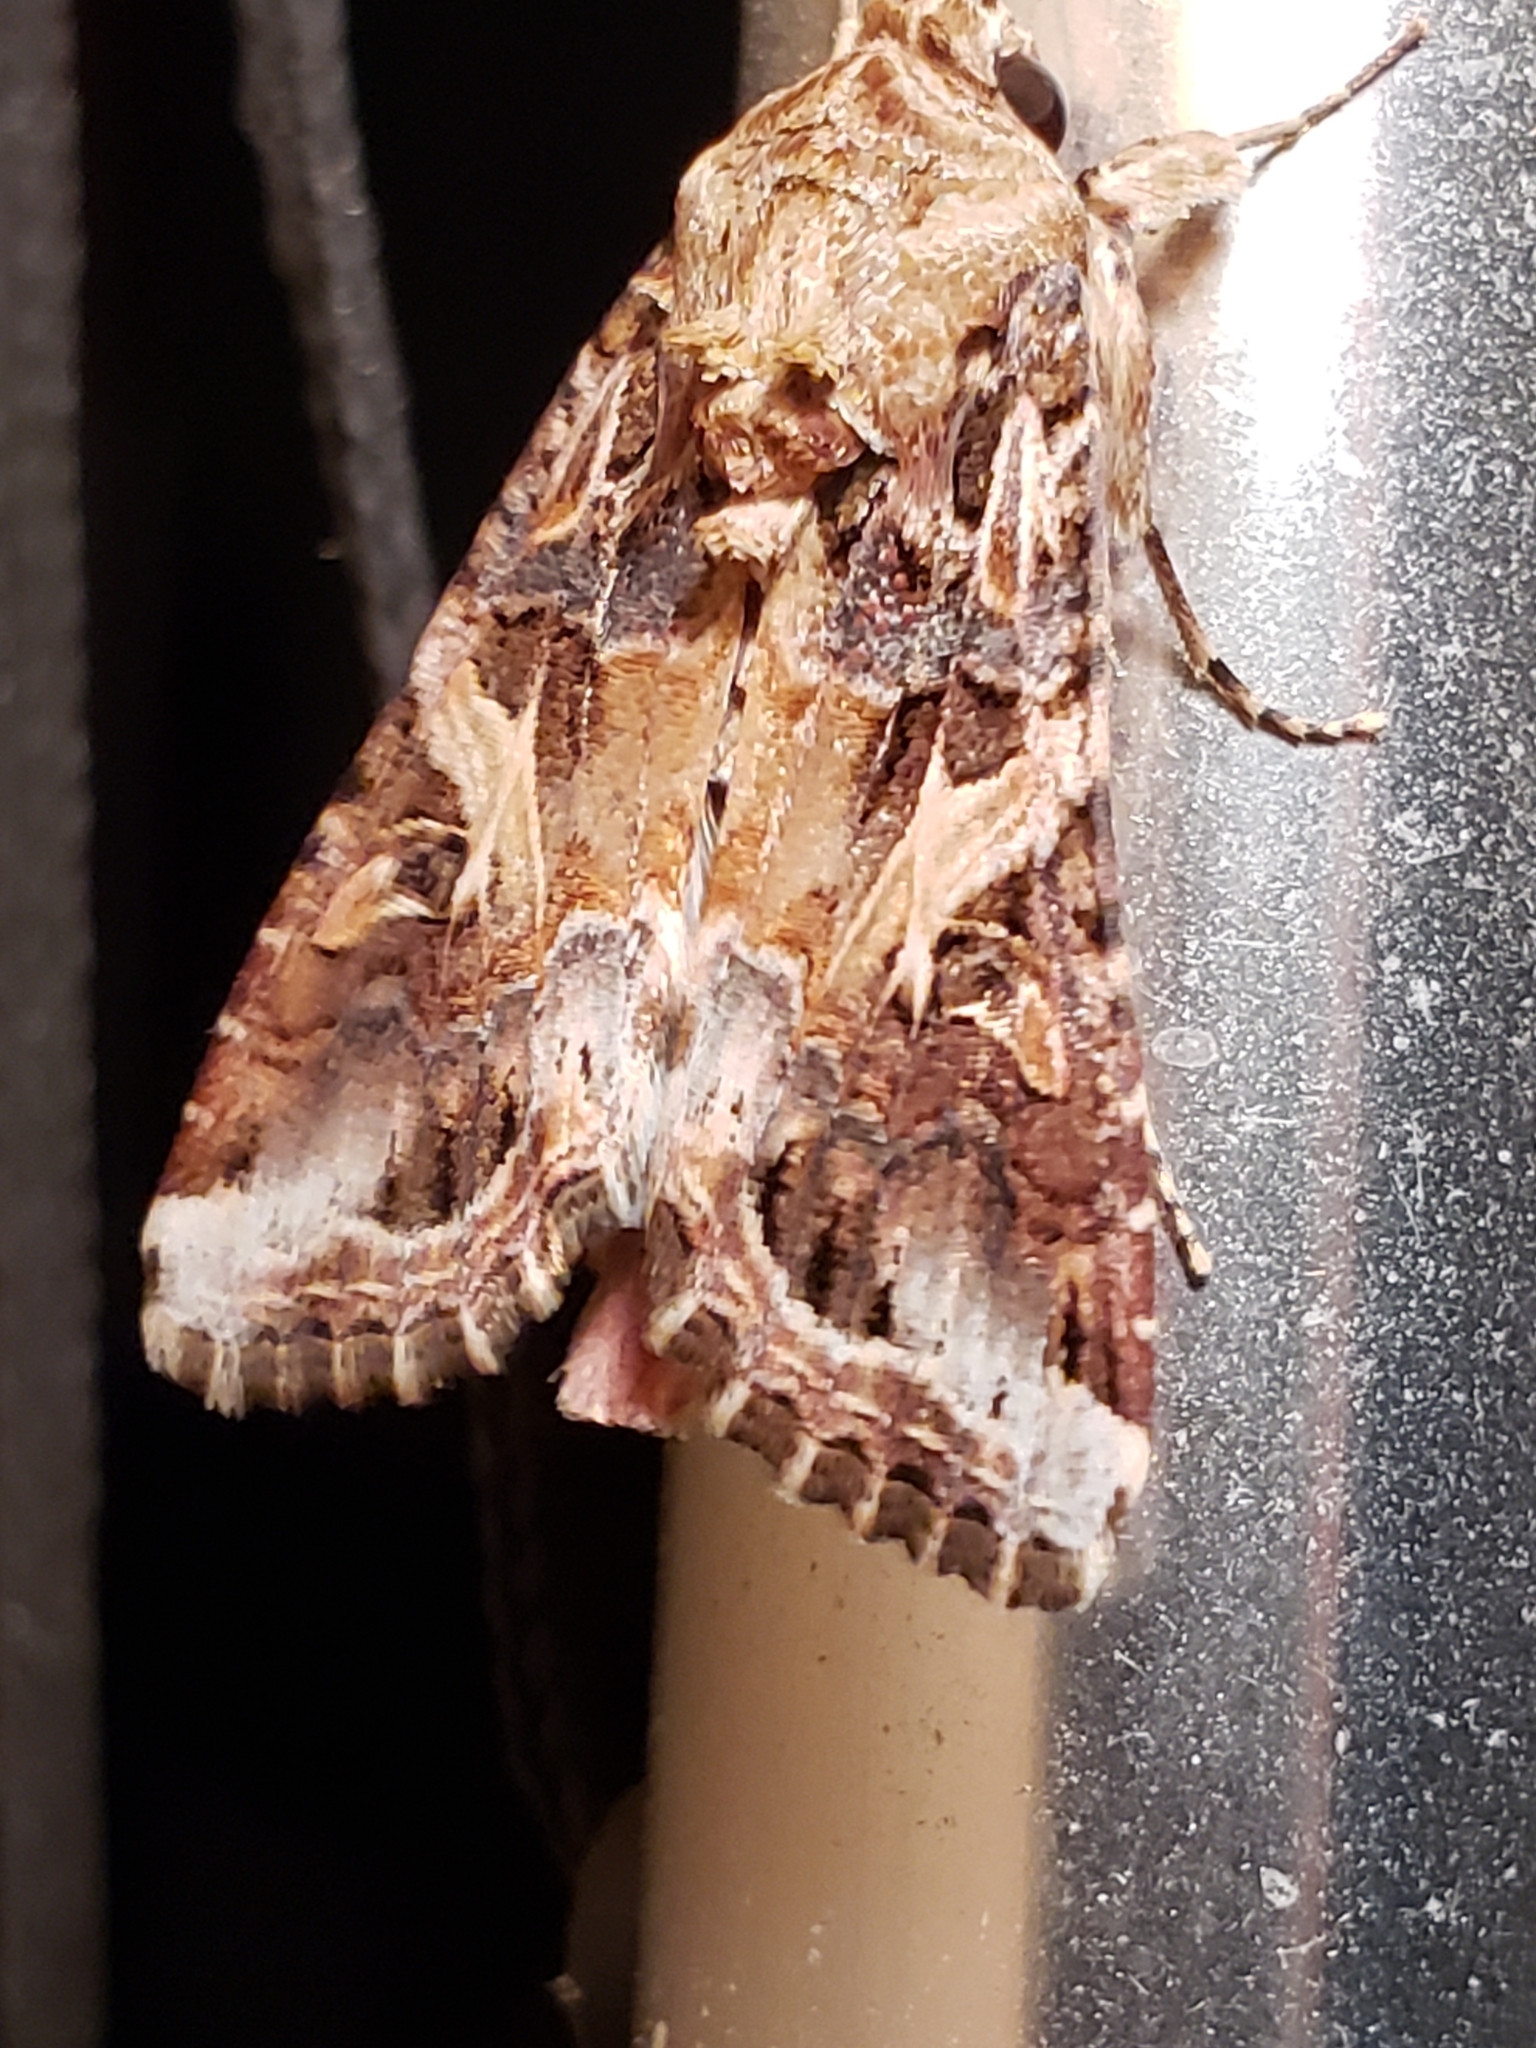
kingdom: Animalia
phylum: Arthropoda
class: Insecta
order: Lepidoptera
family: Noctuidae
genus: Spodoptera
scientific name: Spodoptera ornithogalli
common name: Yellow-striped armyworm
